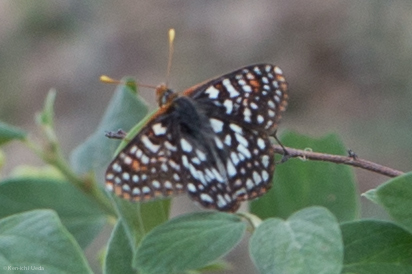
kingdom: Animalia
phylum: Arthropoda
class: Insecta
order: Lepidoptera
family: Nymphalidae
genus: Occidryas
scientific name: Occidryas chalcedona
